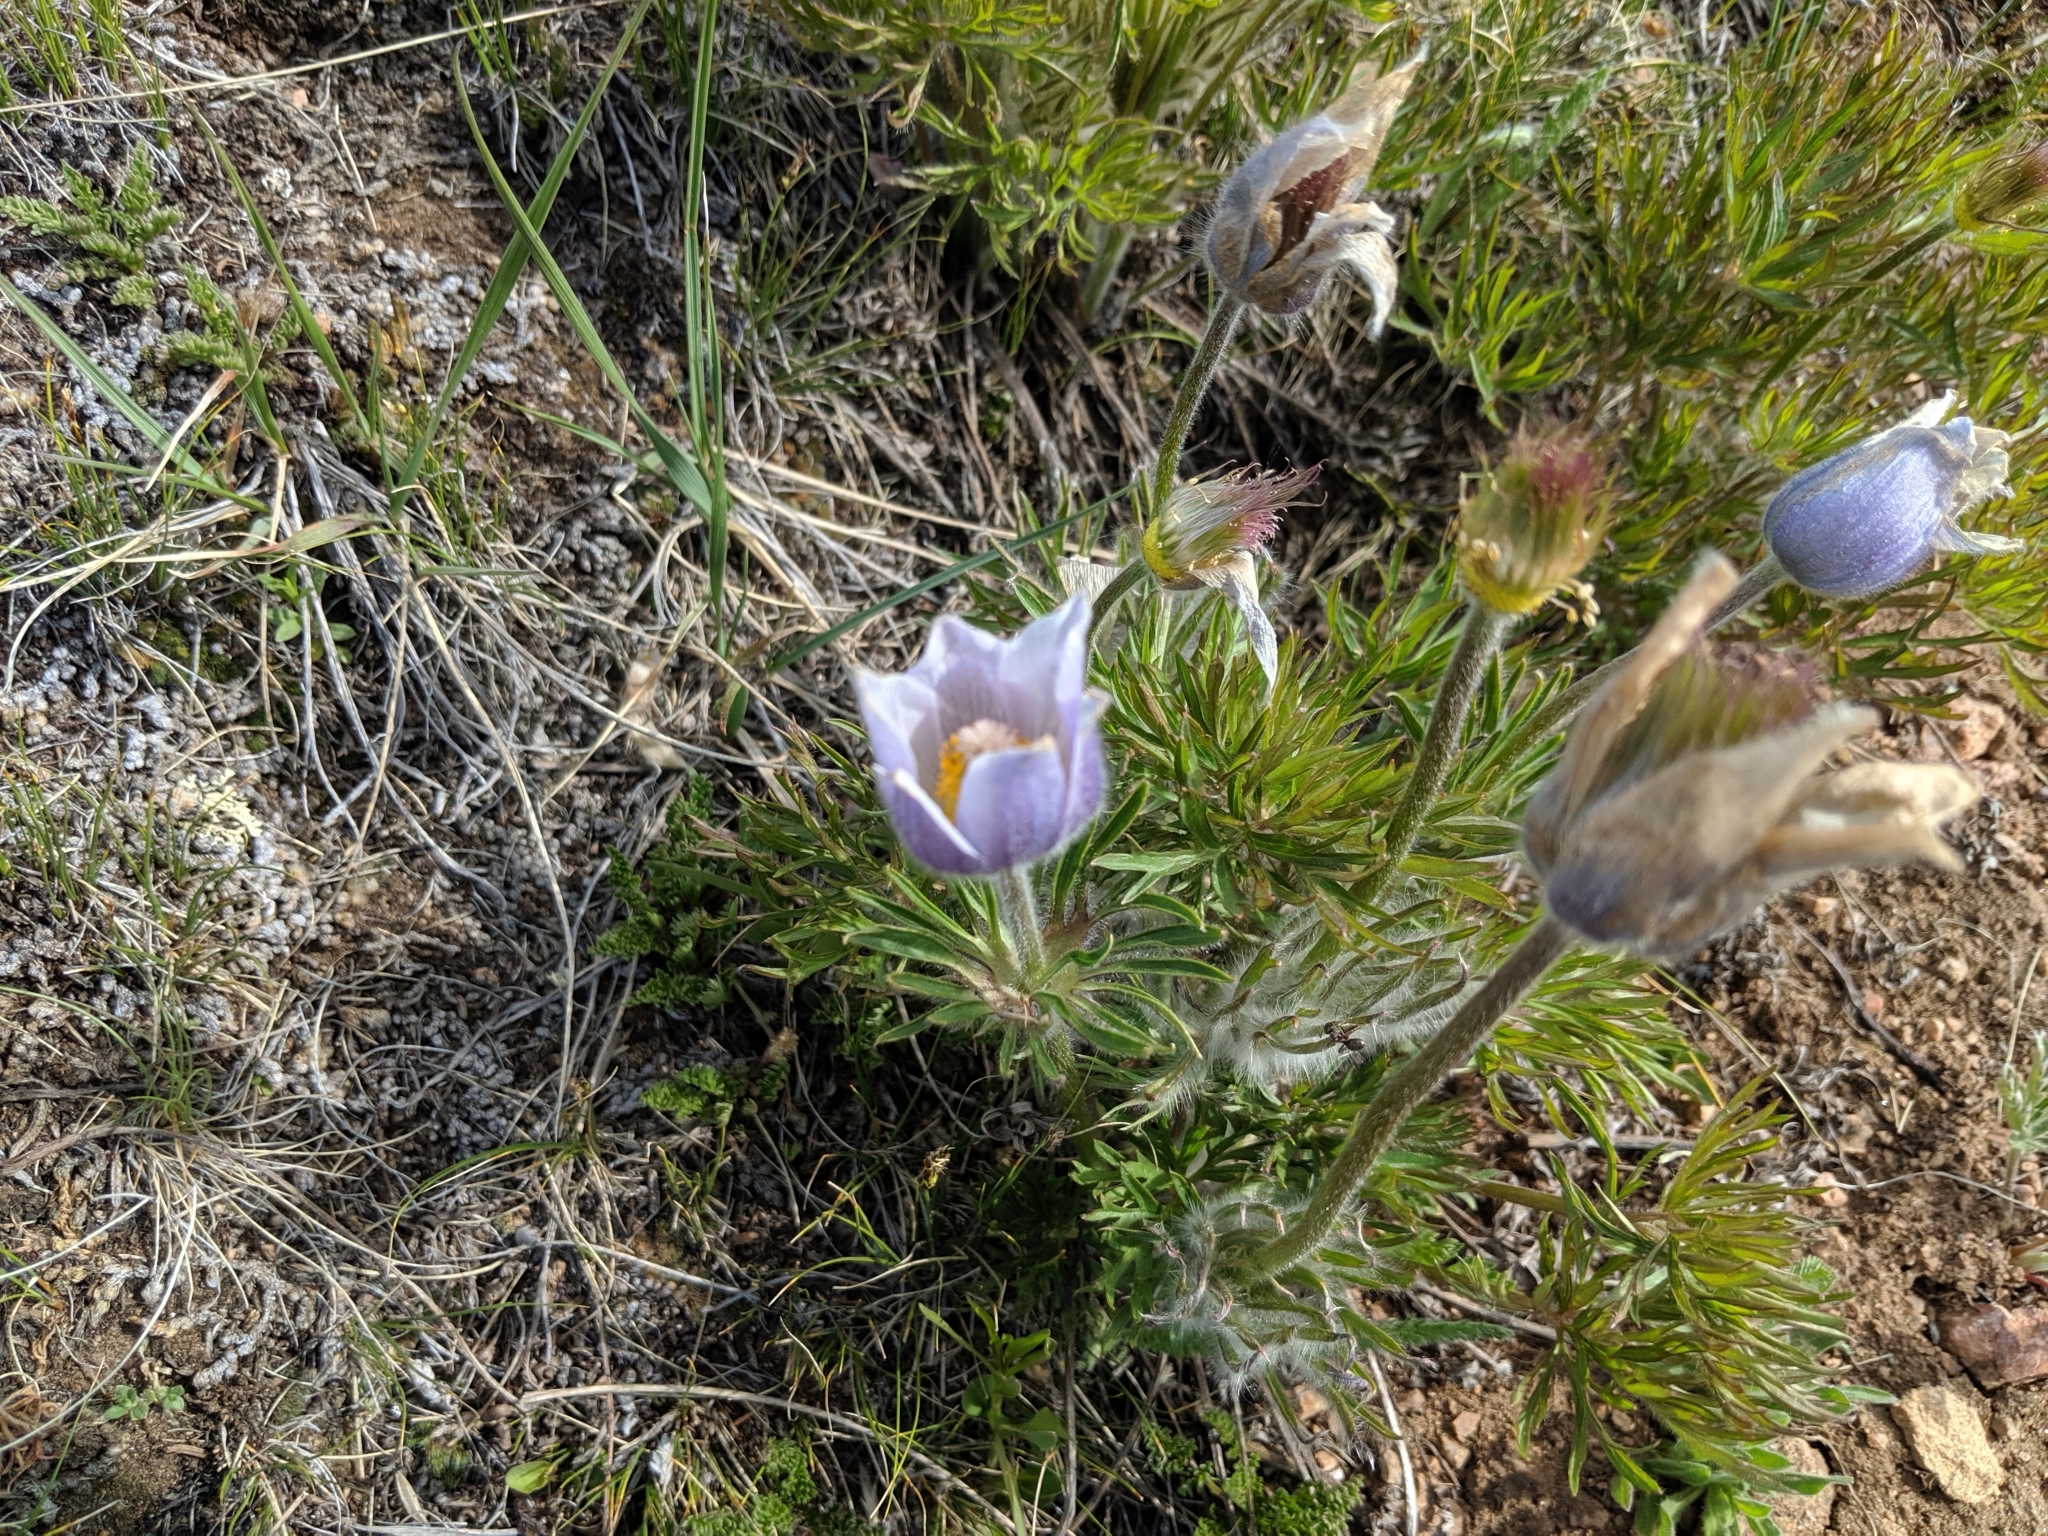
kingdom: Plantae
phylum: Tracheophyta
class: Magnoliopsida
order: Ranunculales
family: Ranunculaceae
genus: Pulsatilla
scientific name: Pulsatilla nuttalliana
